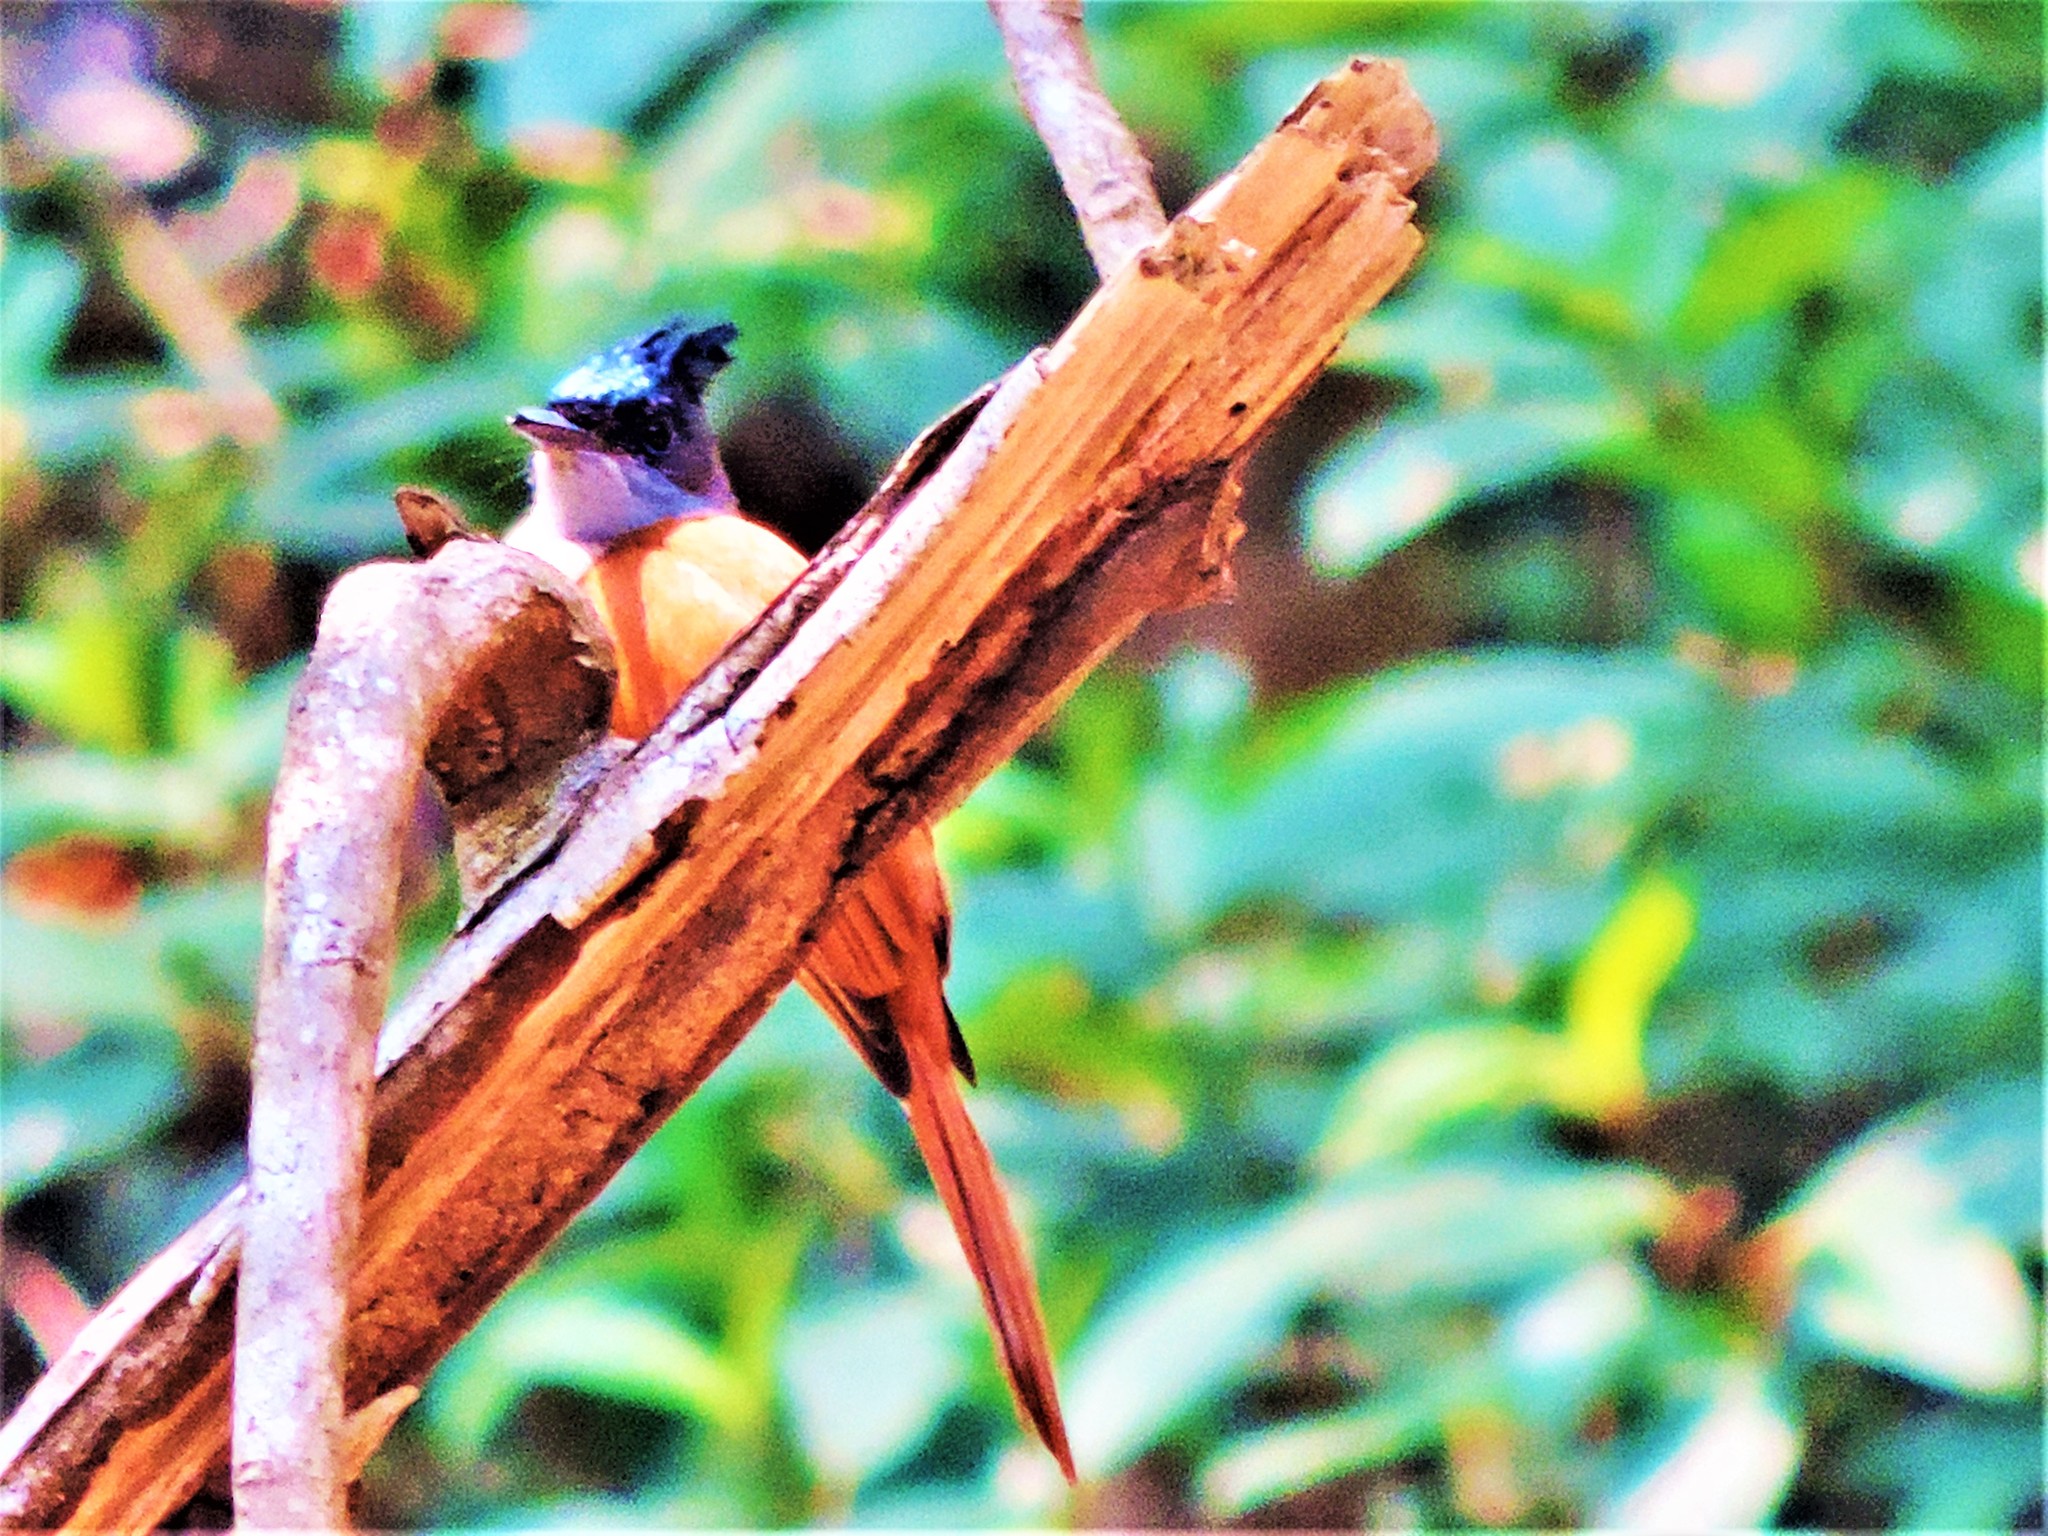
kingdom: Animalia
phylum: Chordata
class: Aves
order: Passeriformes
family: Monarchidae
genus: Terpsiphone
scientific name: Terpsiphone paradisi
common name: Indian paradise flycatcher
